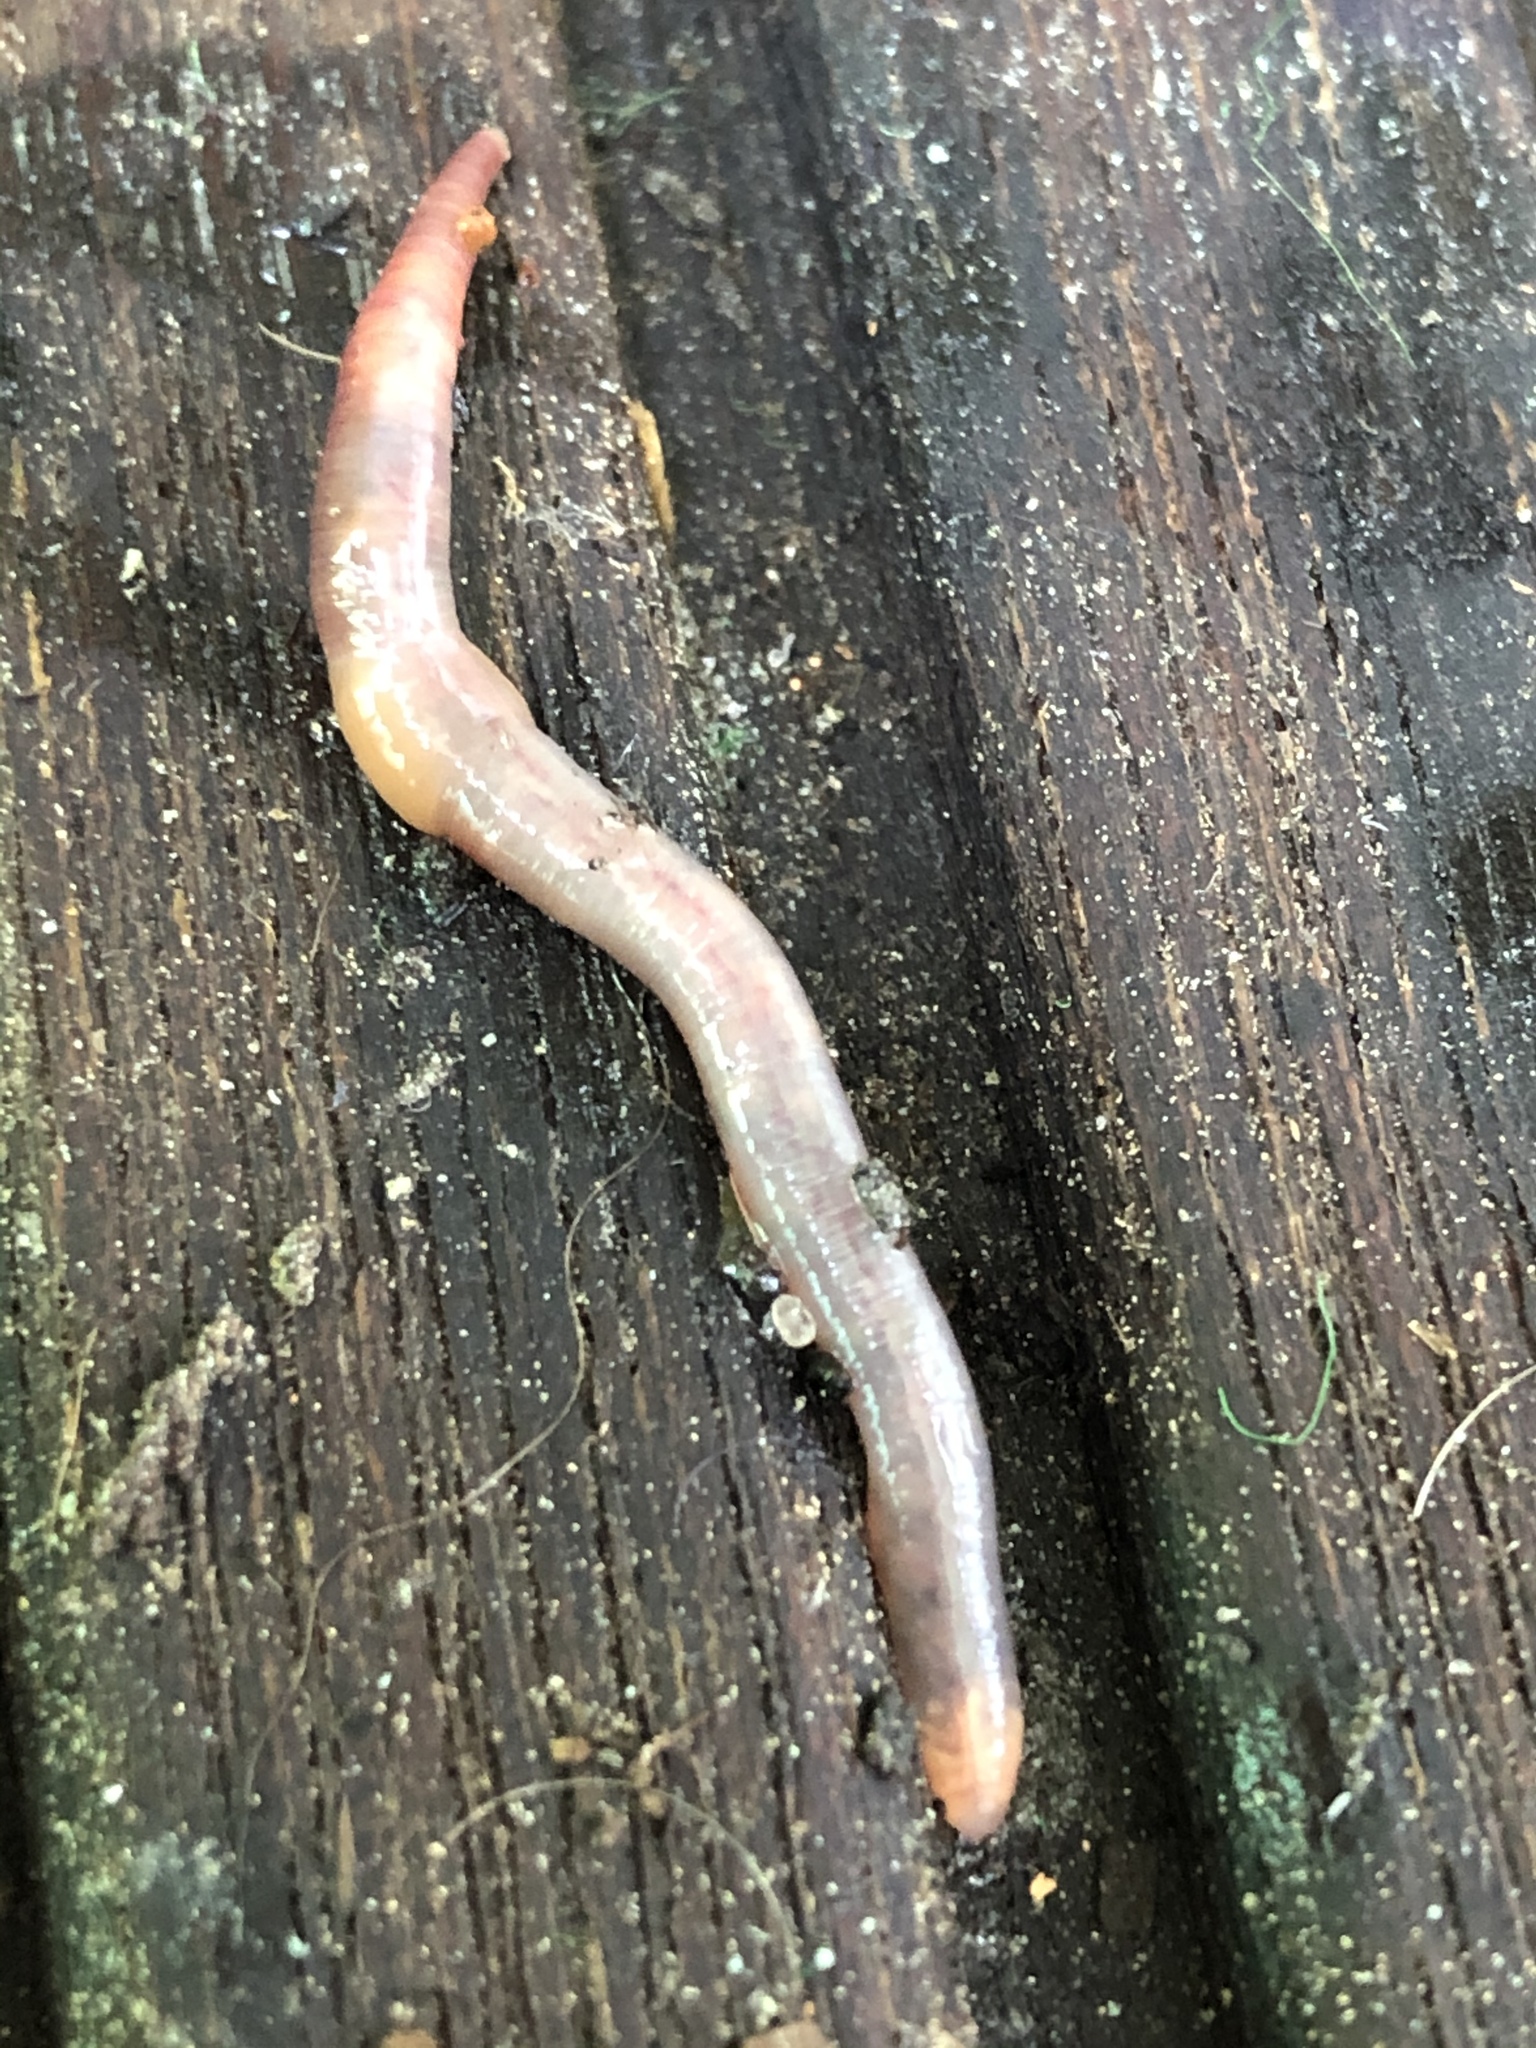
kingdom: Animalia
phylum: Annelida
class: Clitellata
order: Crassiclitellata
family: Lumbricidae
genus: Lumbricus
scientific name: Lumbricus terrestris
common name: Common earthworm
